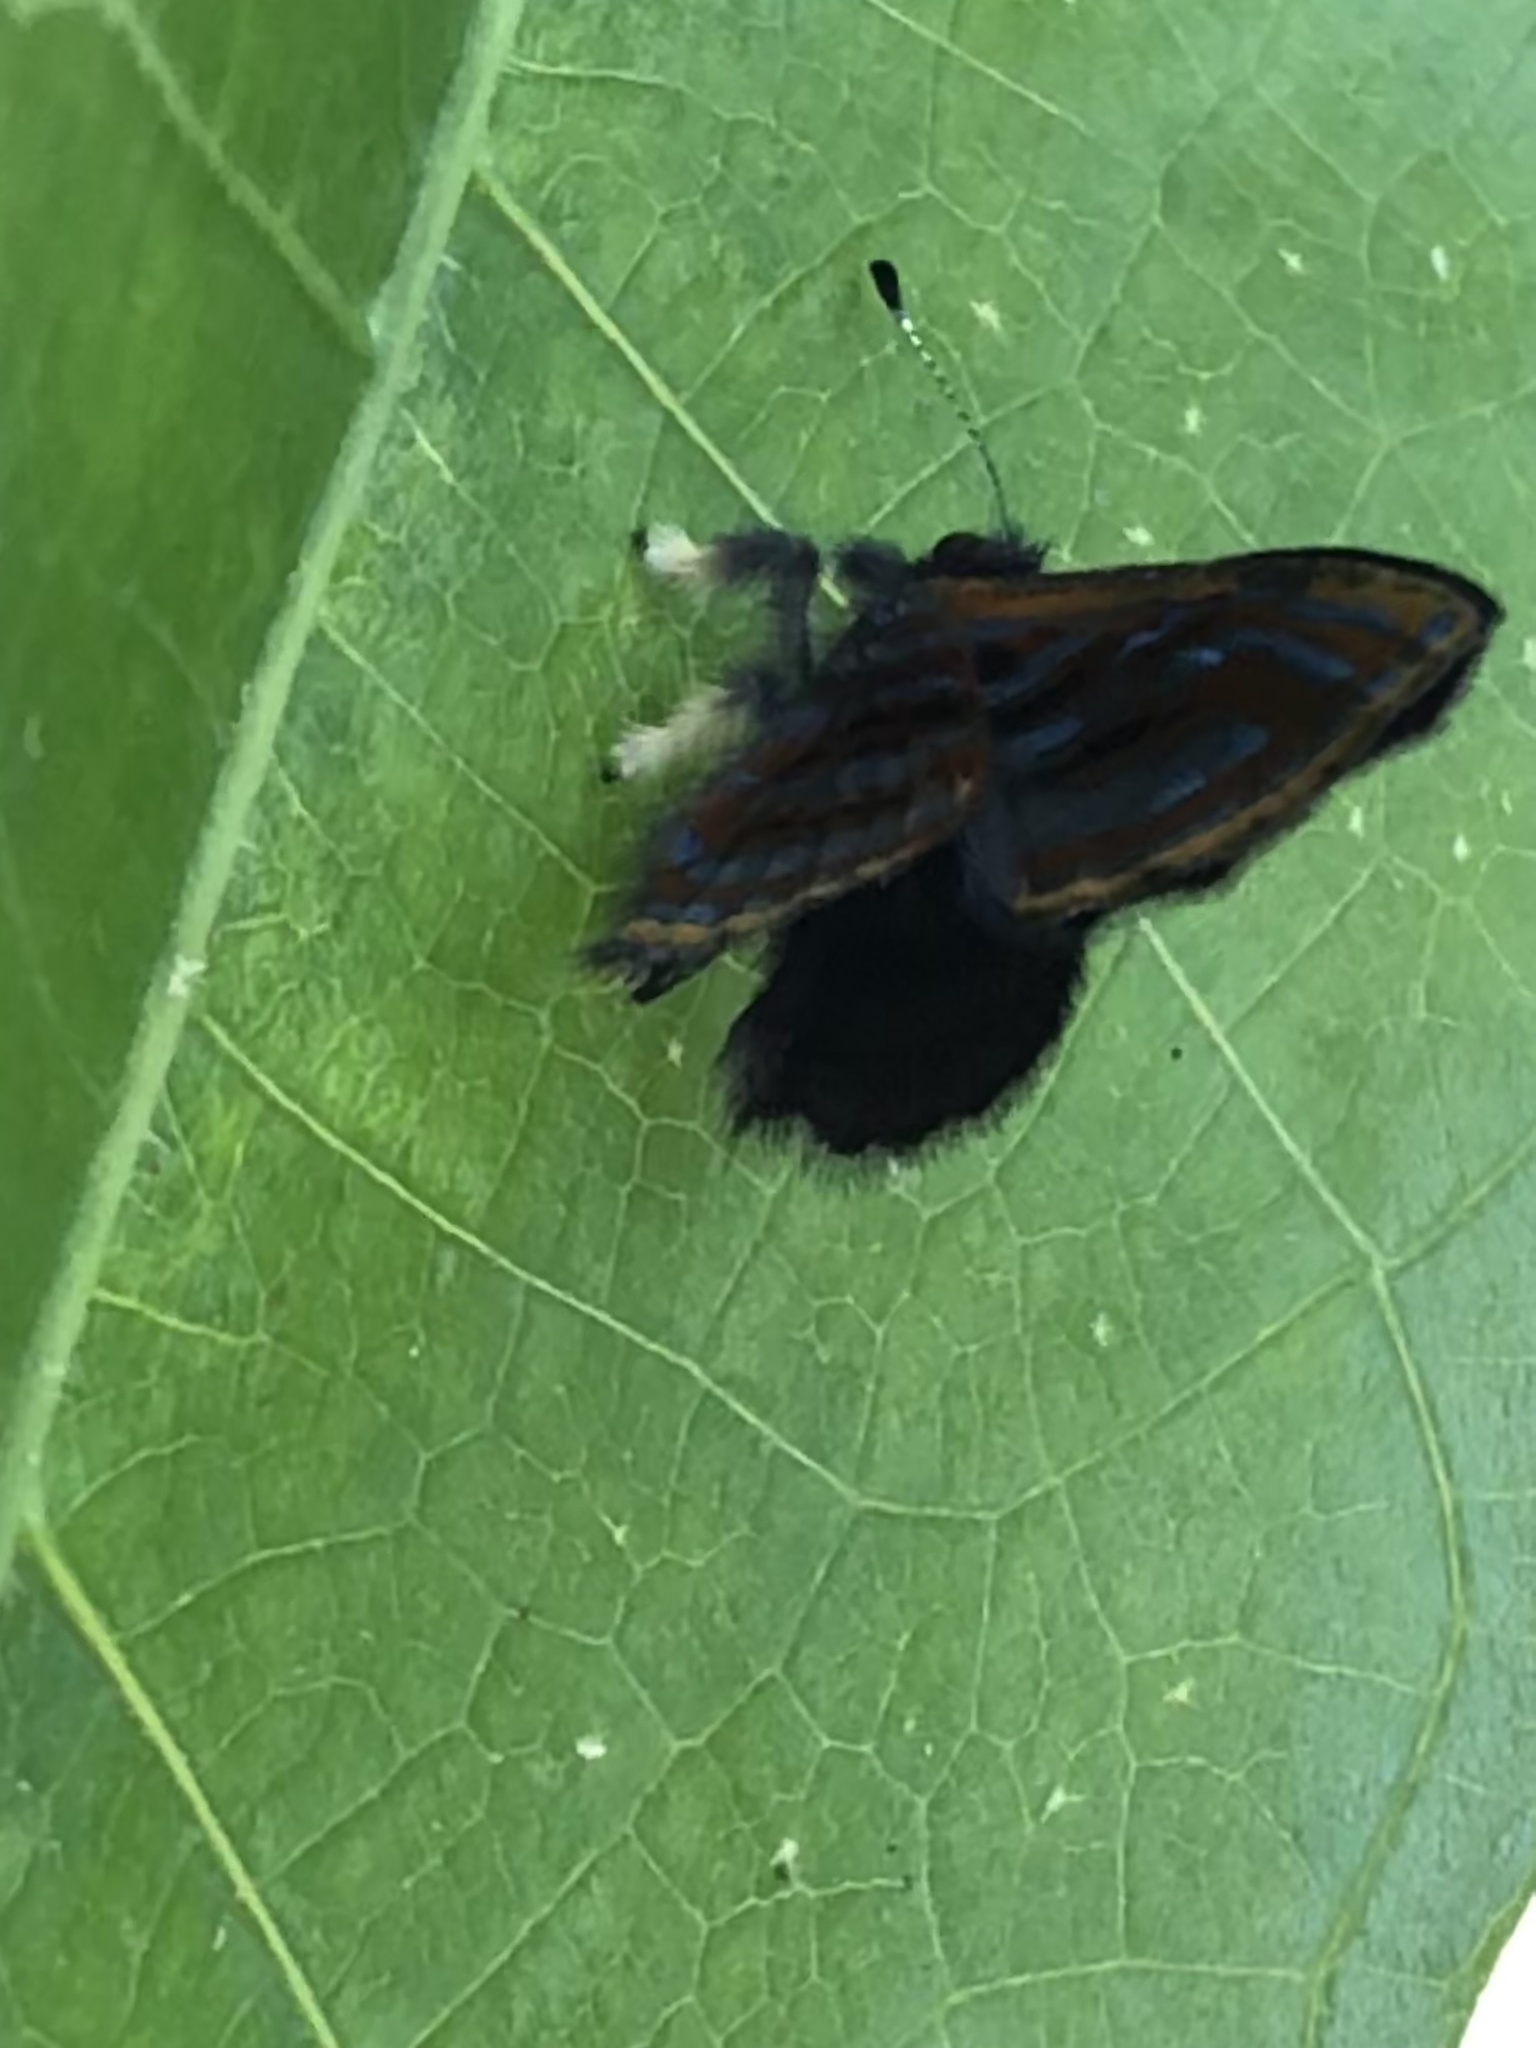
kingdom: Animalia
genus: Charis
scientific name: Charis Sarota karishmae
